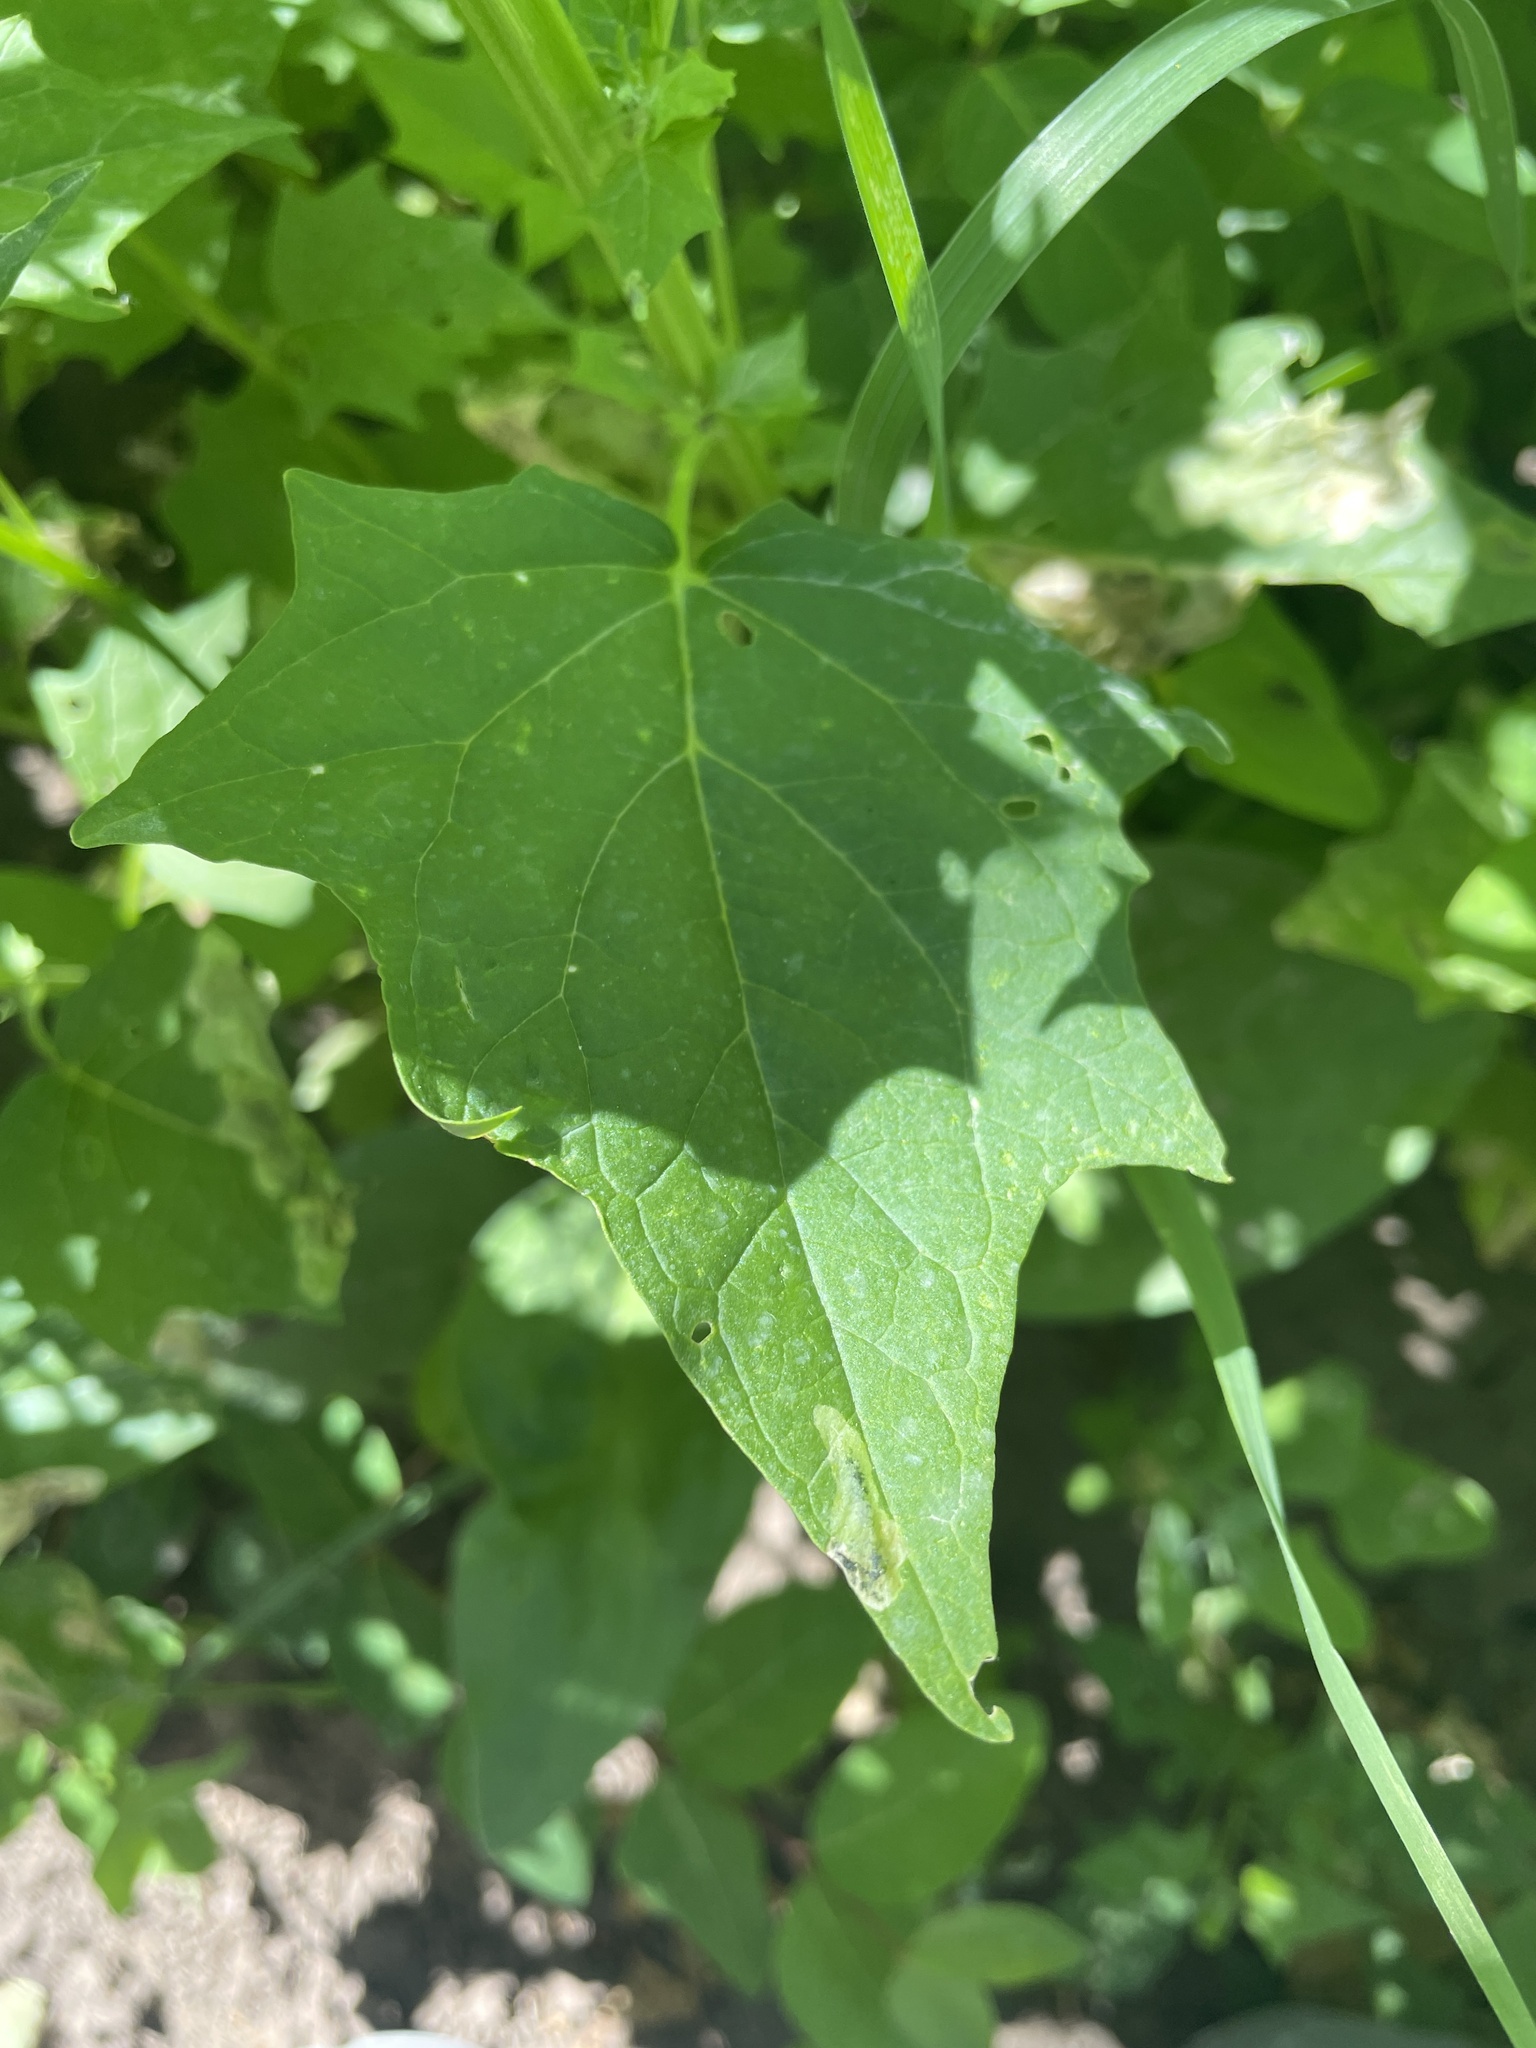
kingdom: Plantae
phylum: Tracheophyta
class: Magnoliopsida
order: Caryophyllales
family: Amaranthaceae
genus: Chenopodiastrum
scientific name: Chenopodiastrum hybridum
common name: Mapleleaf goosefoot
